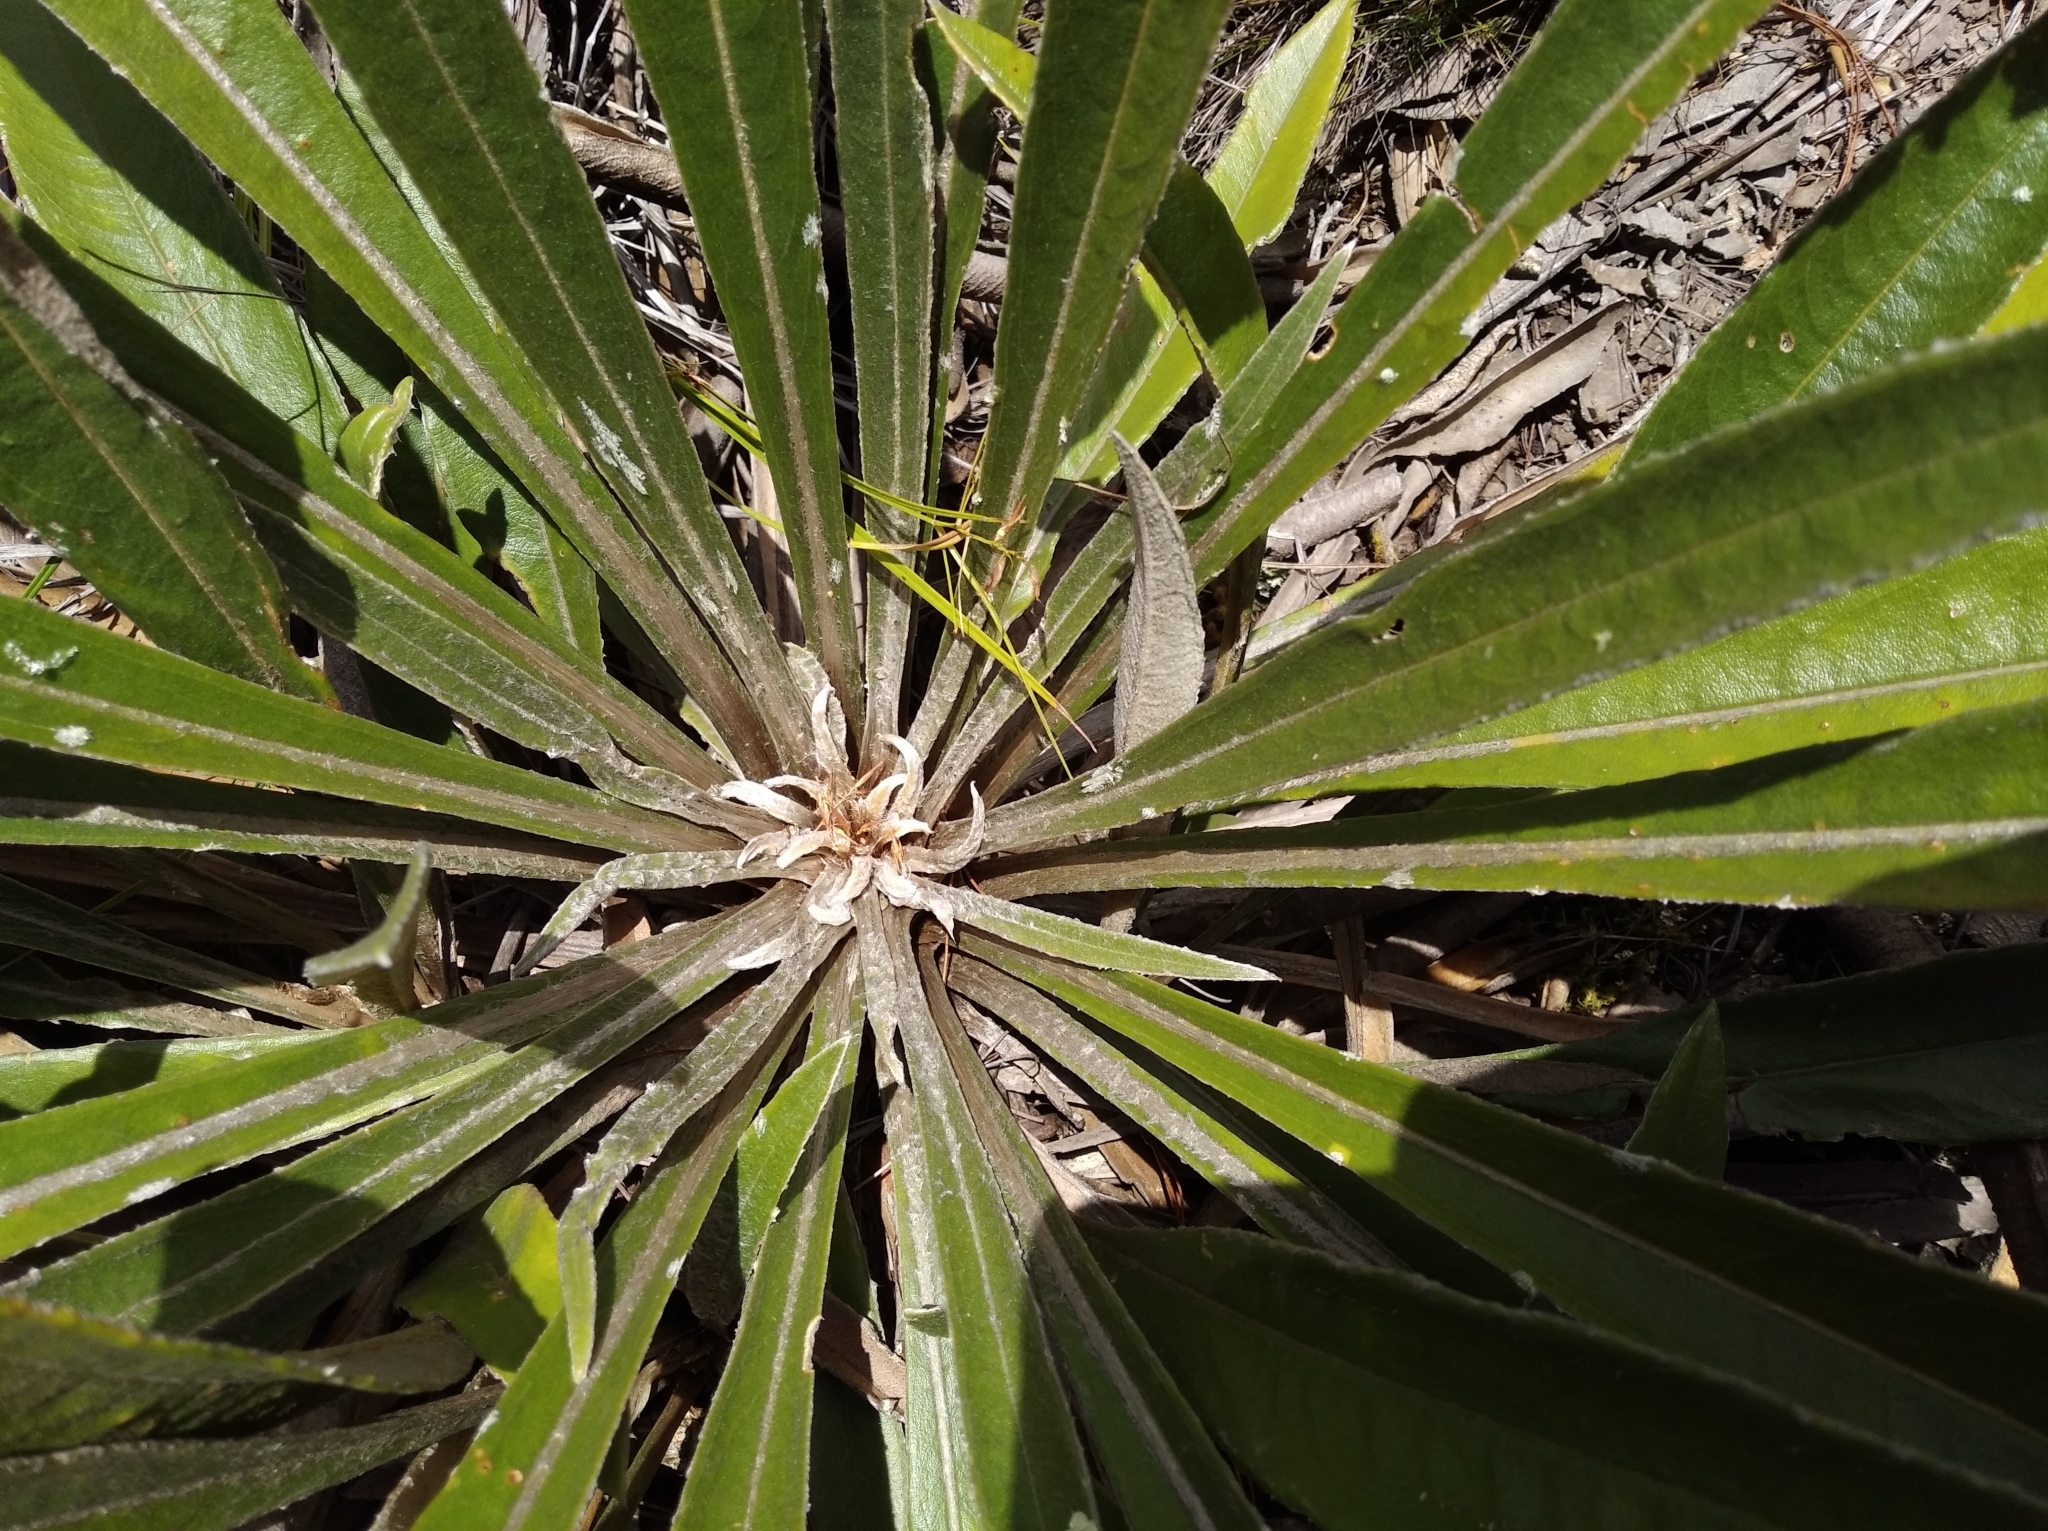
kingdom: Plantae
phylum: Tracheophyta
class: Magnoliopsida
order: Asterales
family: Asteraceae
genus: Espeletia
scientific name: Espeletia bracteosa
